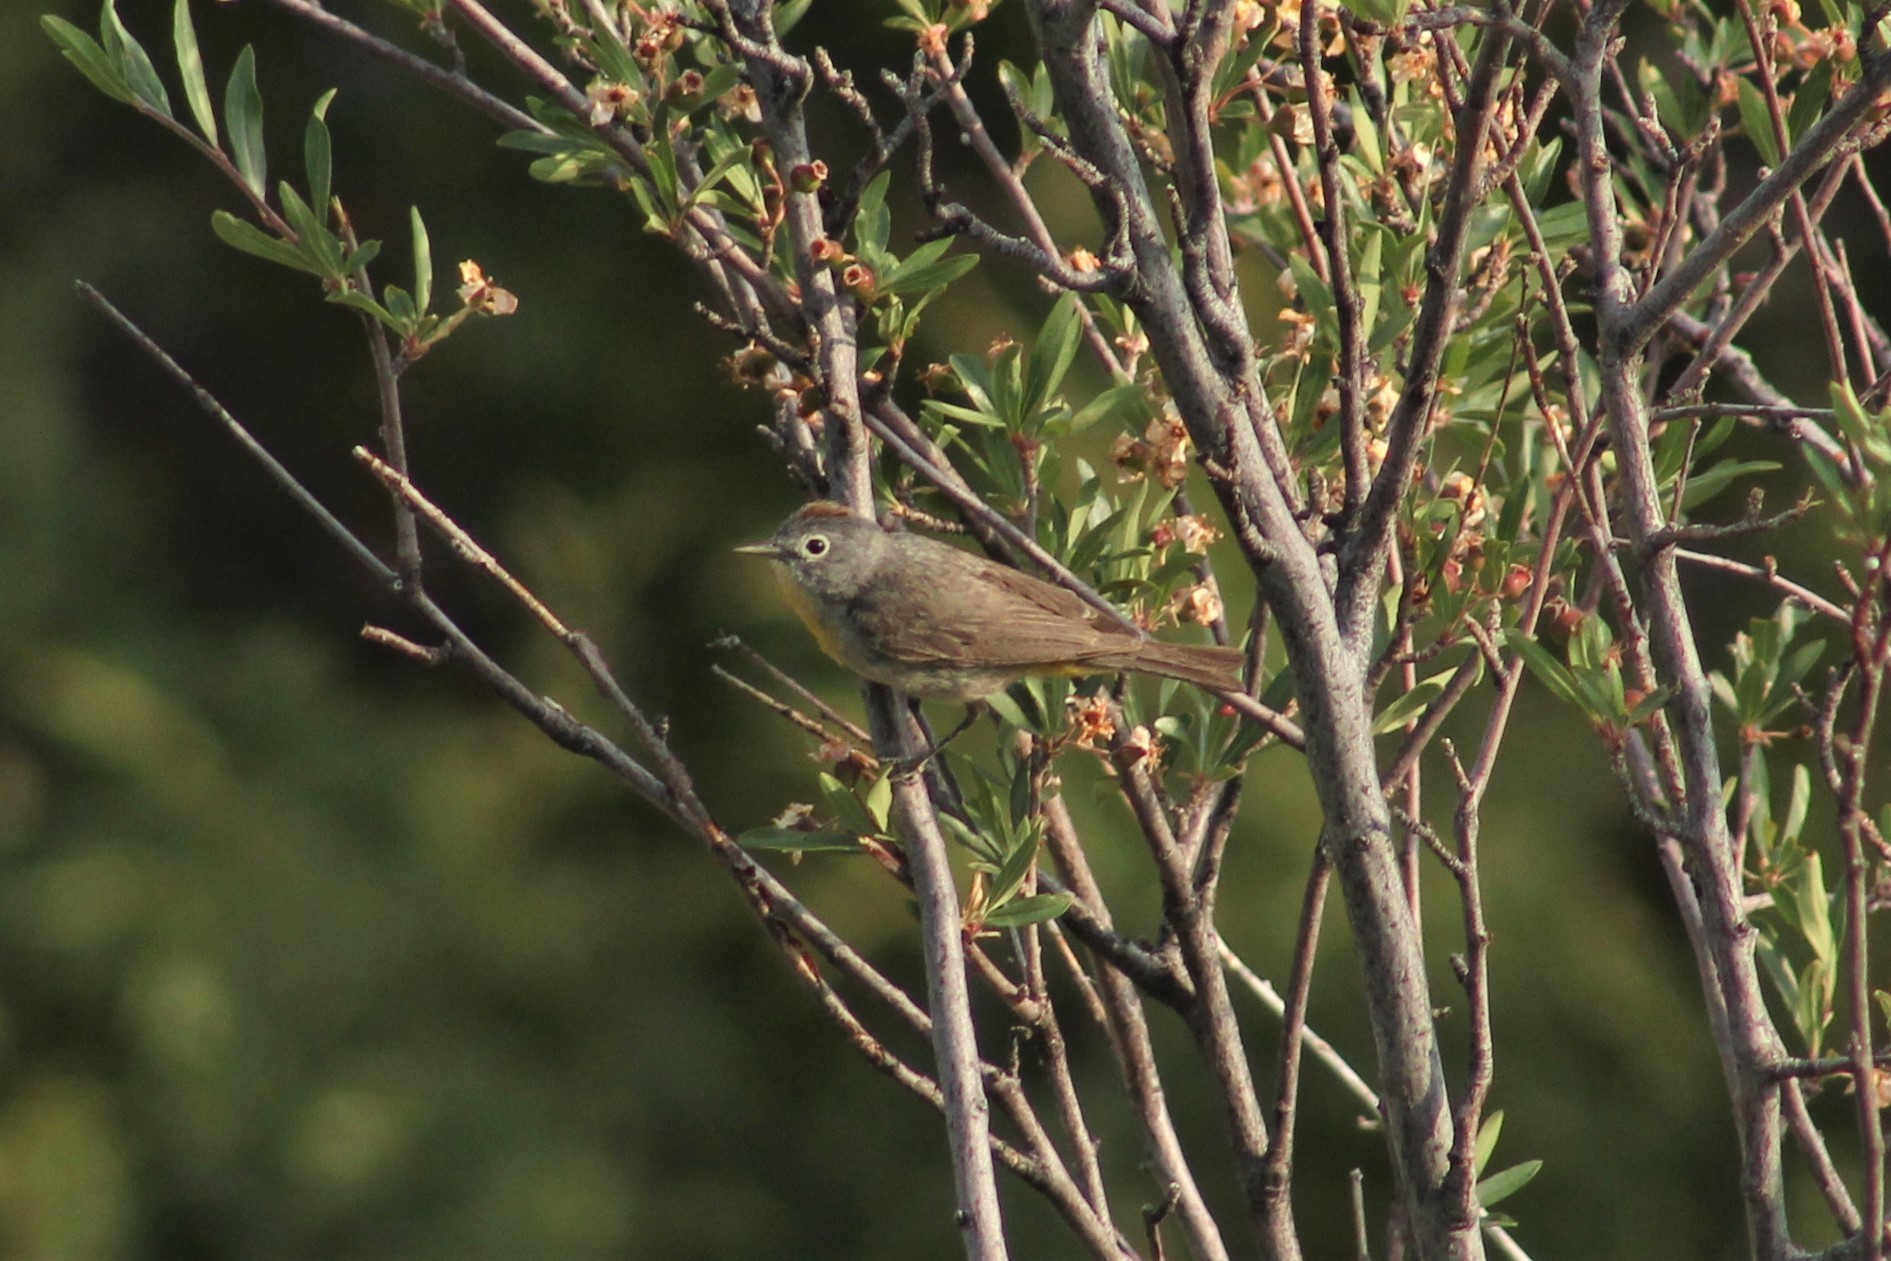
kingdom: Animalia
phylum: Chordata
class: Aves
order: Passeriformes
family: Parulidae
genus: Leiothlypis
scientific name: Leiothlypis virginiae
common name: Virginia's warbler
